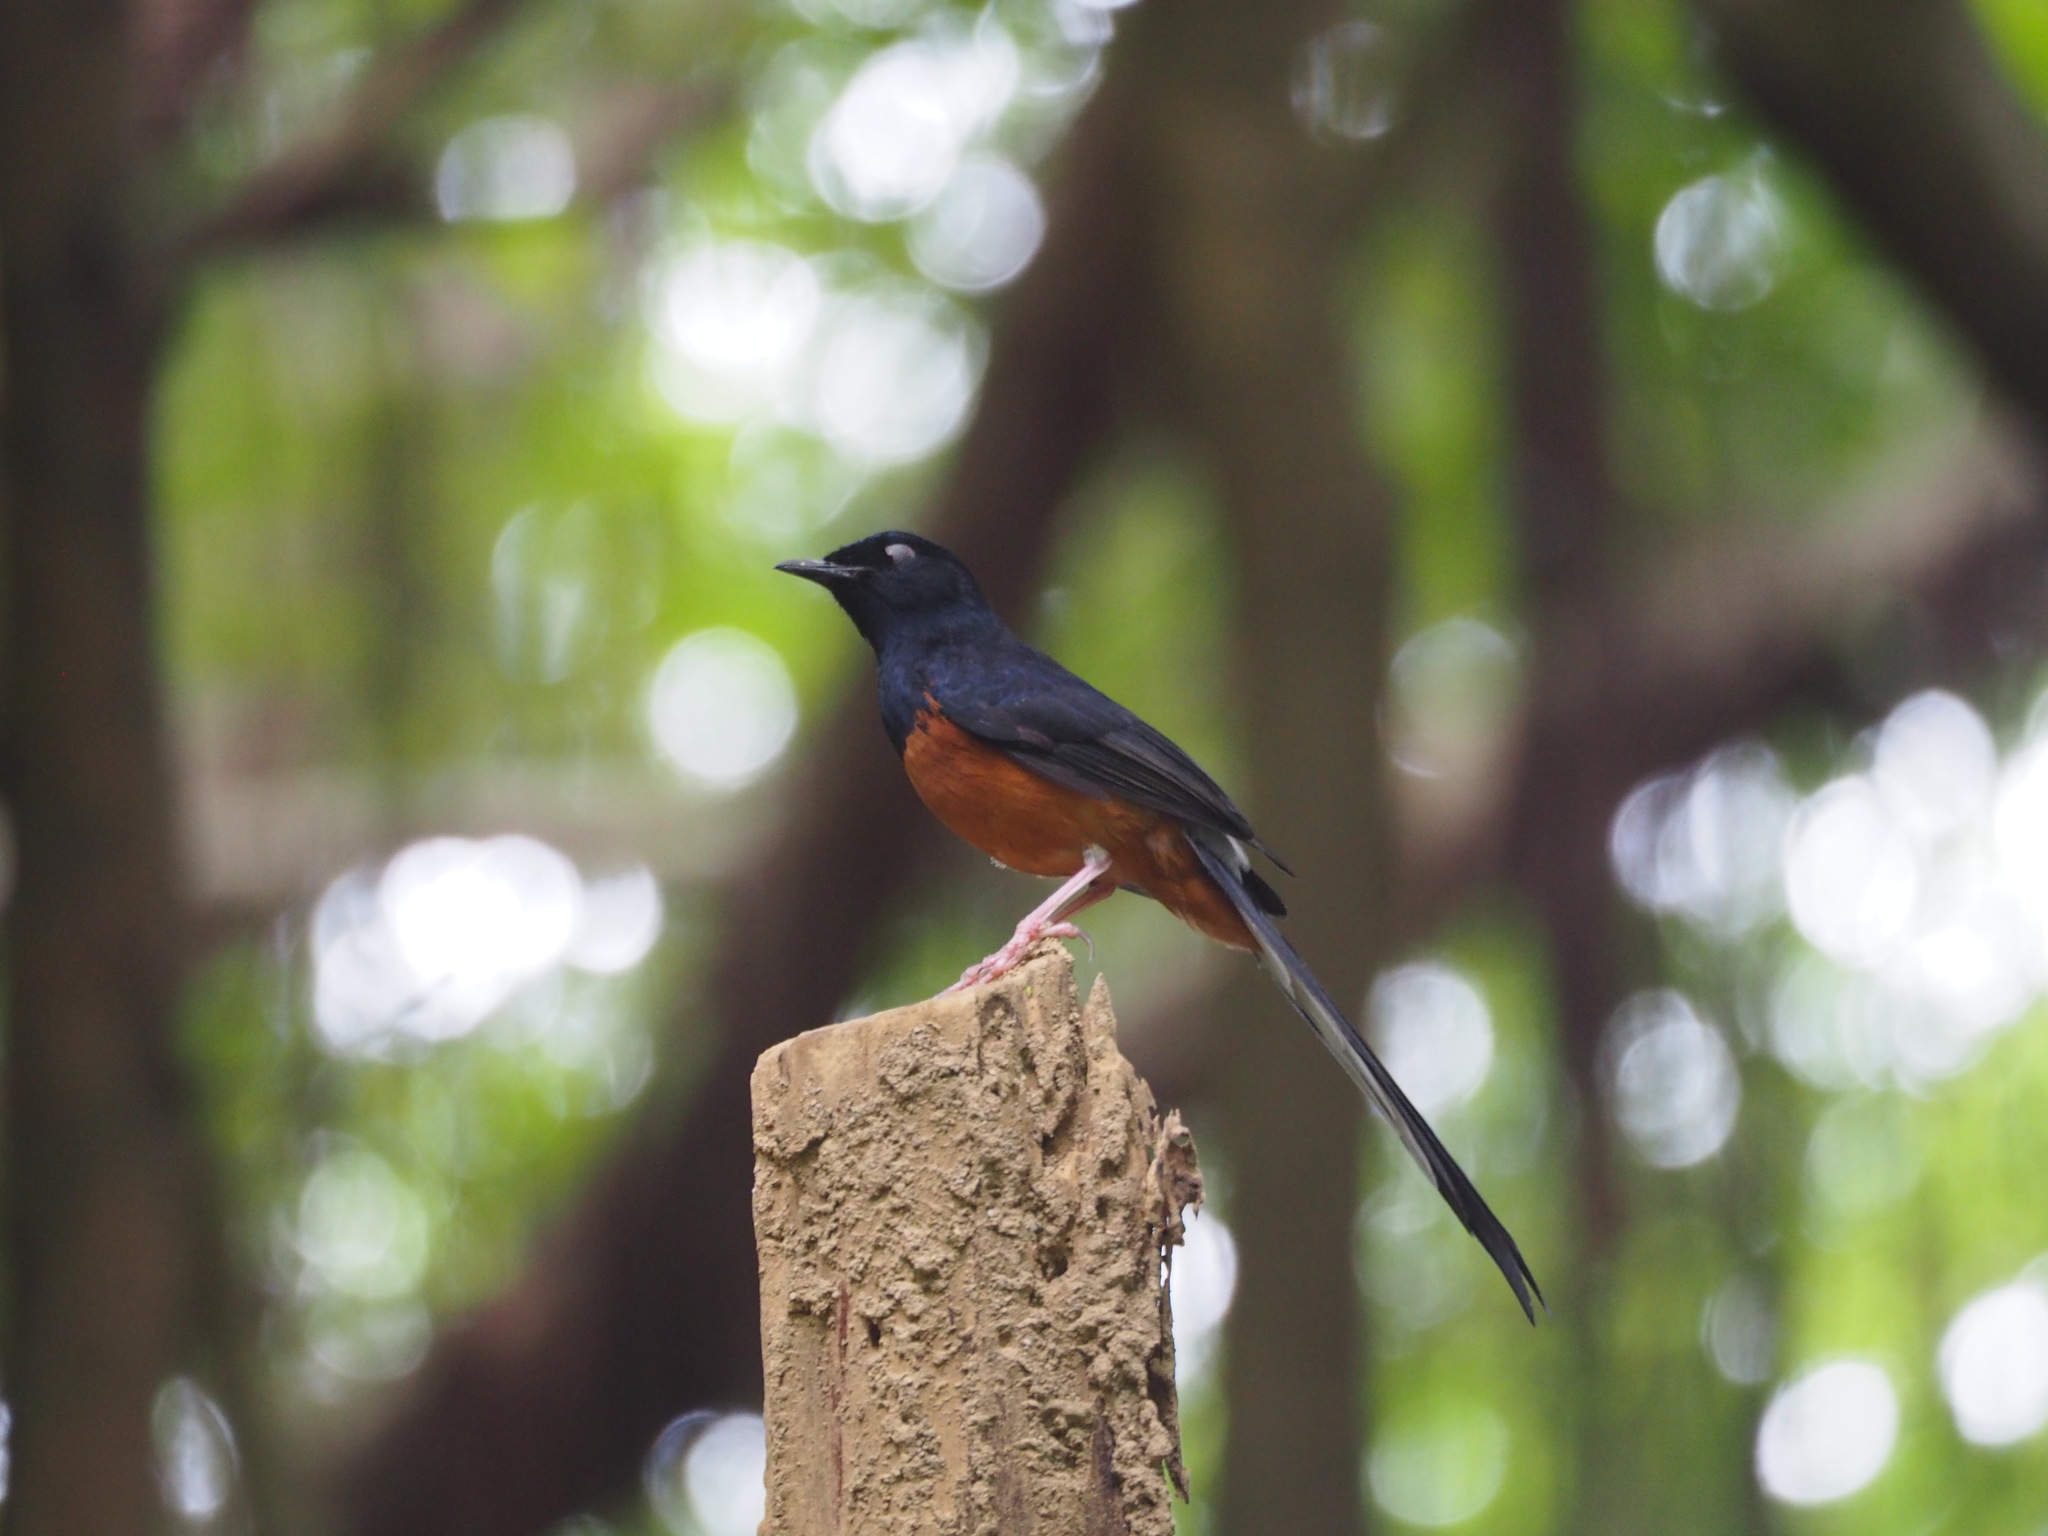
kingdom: Animalia
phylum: Chordata
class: Aves
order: Passeriformes
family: Muscicapidae
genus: Copsychus
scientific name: Copsychus malabaricus
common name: White-rumped shama
